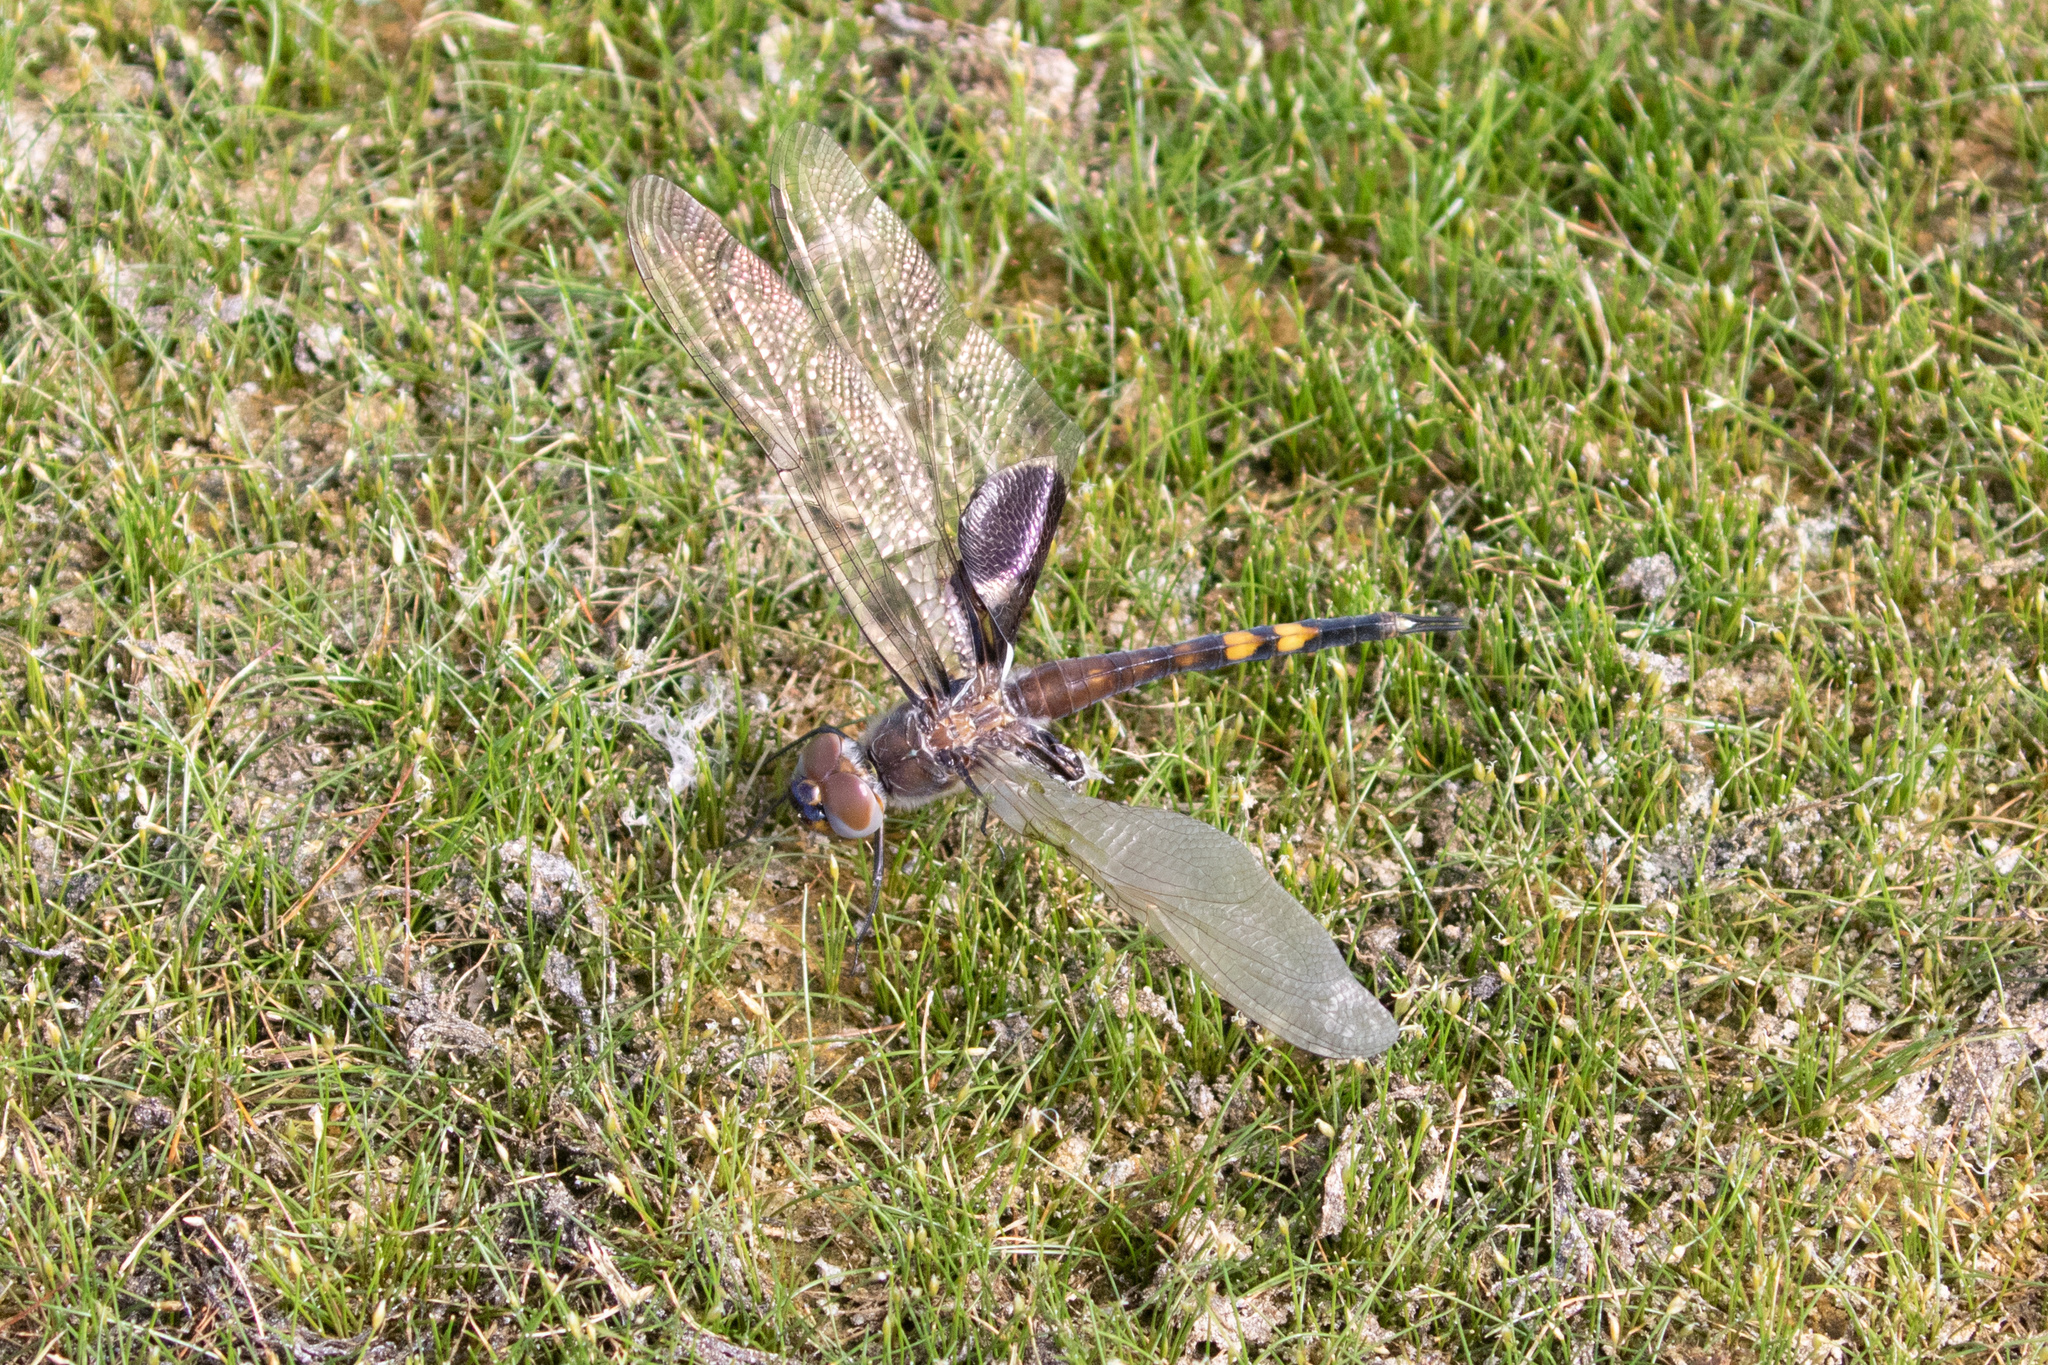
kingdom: Animalia
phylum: Arthropoda
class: Insecta
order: Odonata
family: Libellulidae
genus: Tramea
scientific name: Tramea lacerata
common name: Black saddlebags
